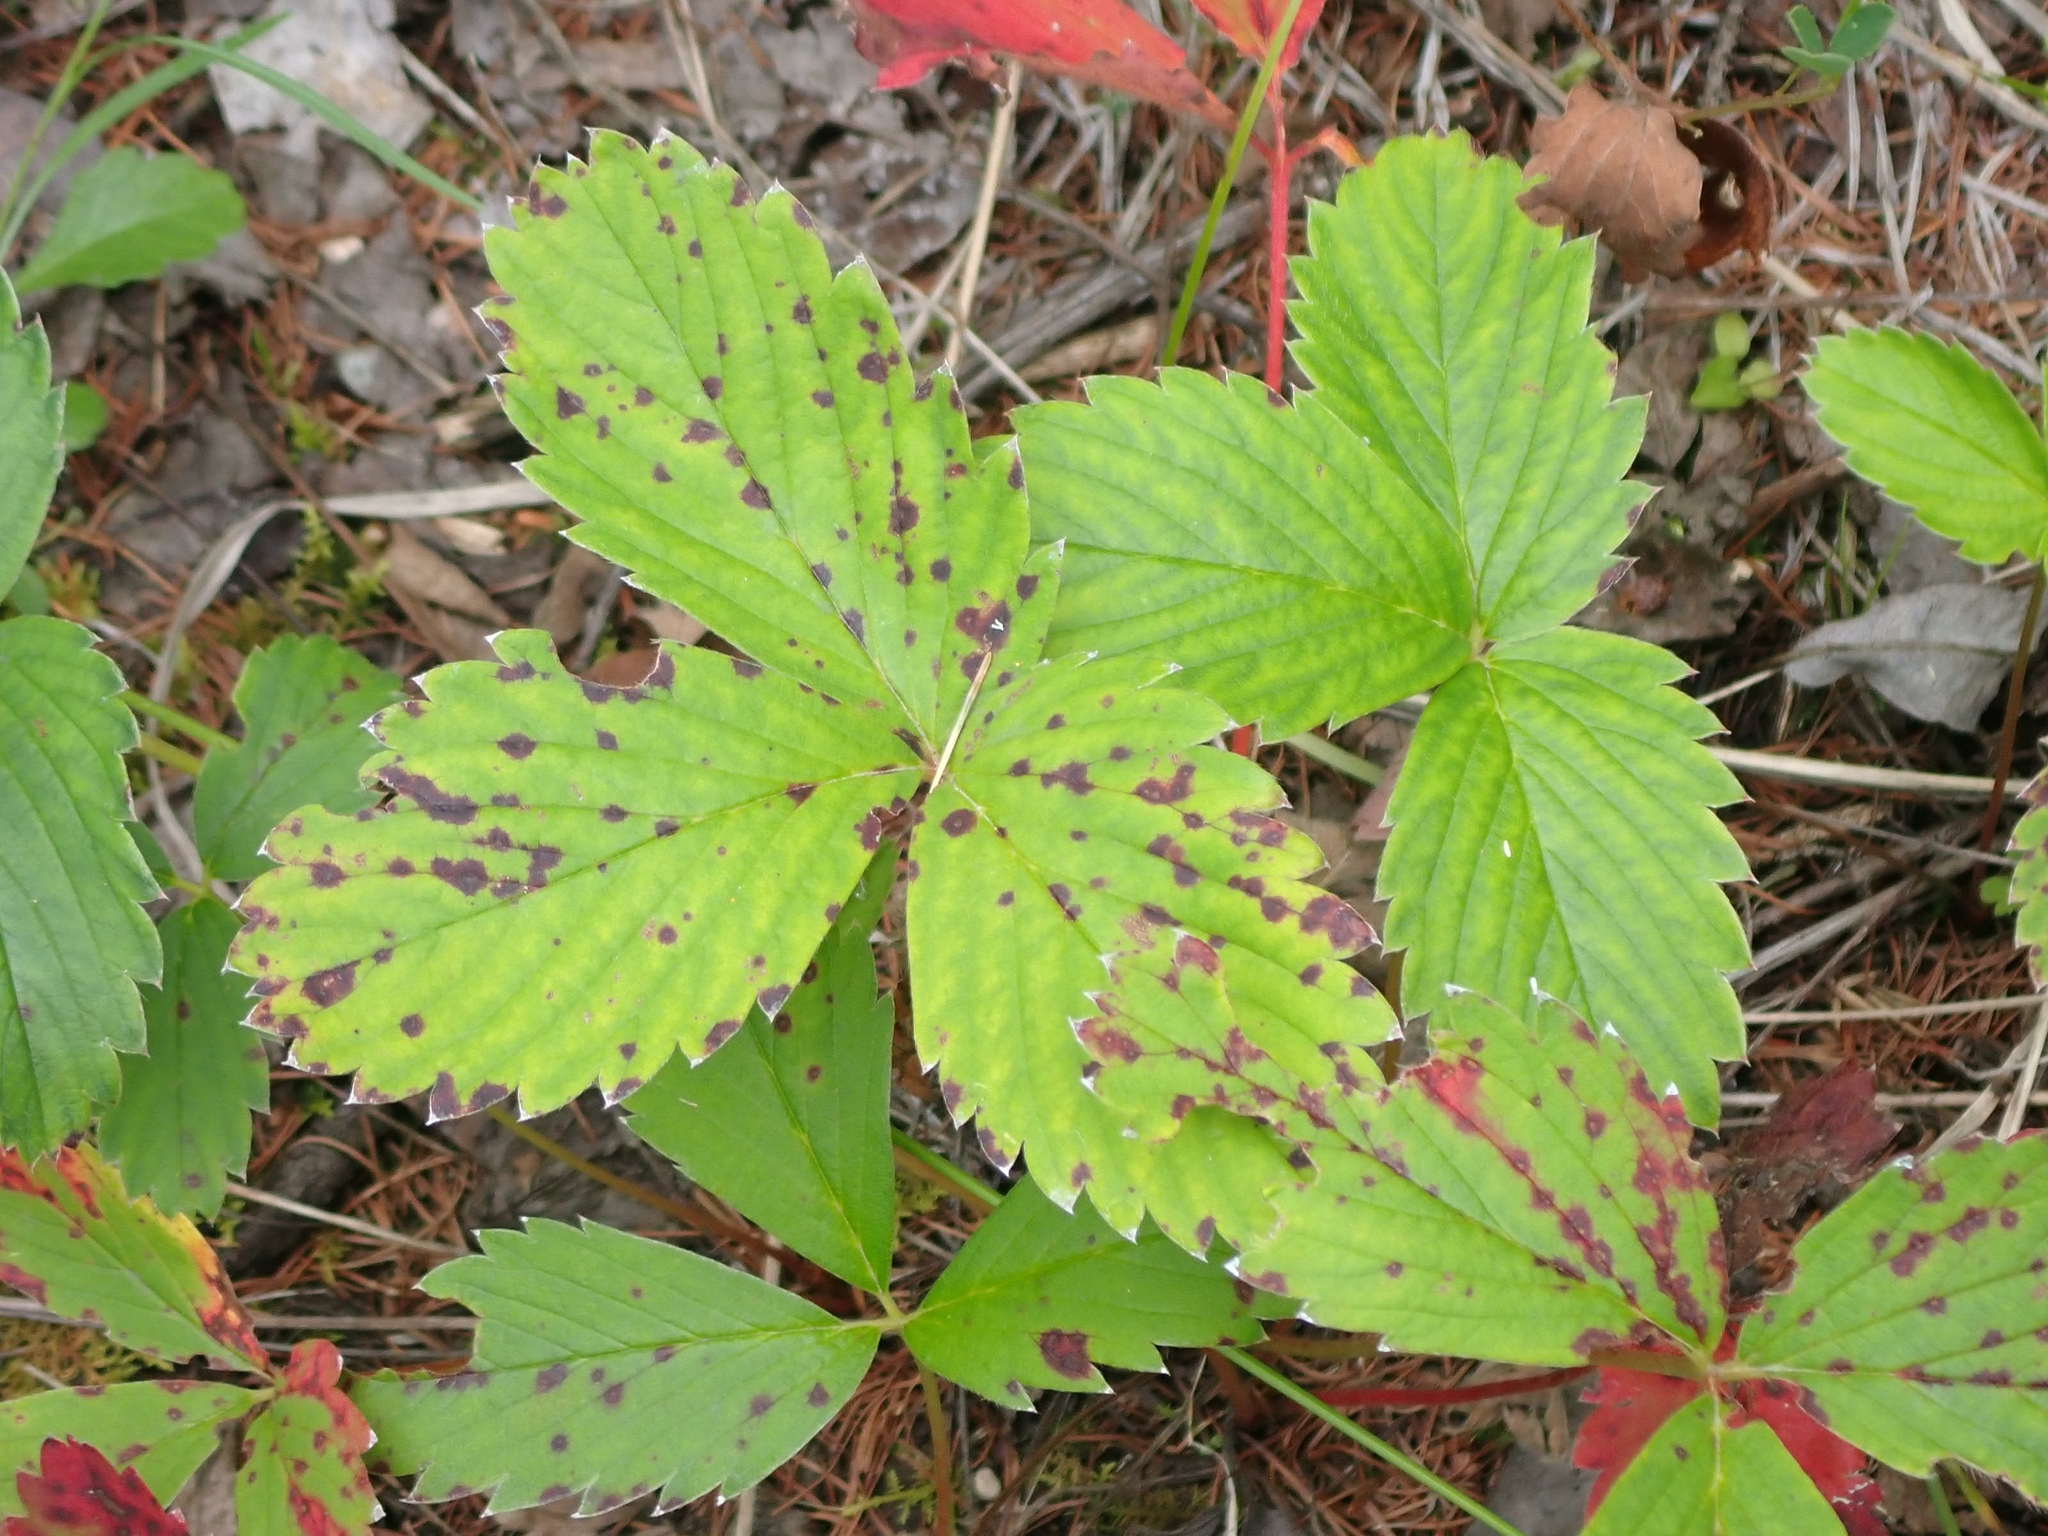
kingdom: Plantae
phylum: Tracheophyta
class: Magnoliopsida
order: Rosales
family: Rosaceae
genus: Fragaria
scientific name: Fragaria virginiana
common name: Thickleaved wild strawberry
